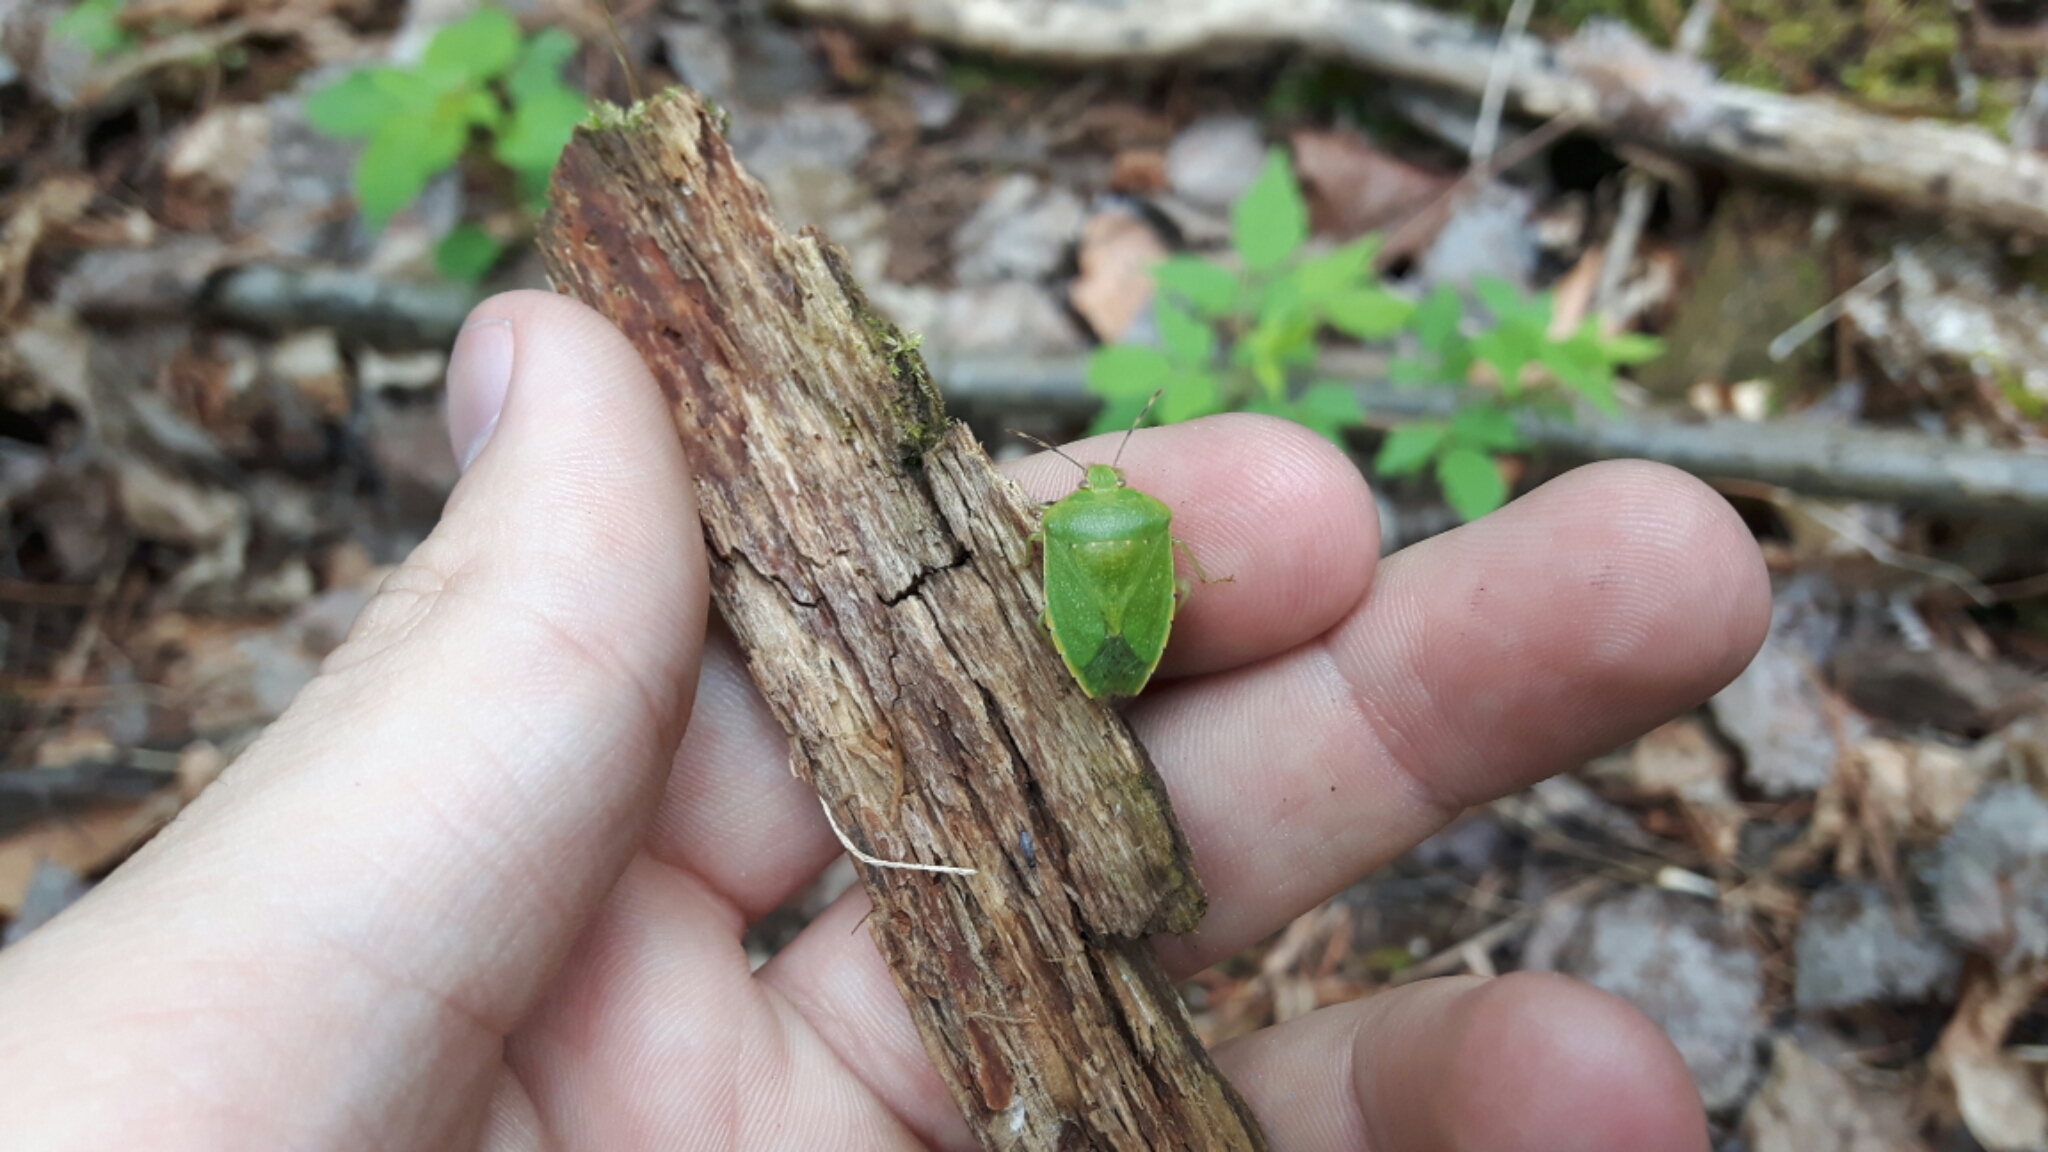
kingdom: Animalia
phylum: Arthropoda
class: Insecta
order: Hemiptera
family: Pentatomidae
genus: Chinavia
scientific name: Chinavia hilaris
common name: Green stink bug
